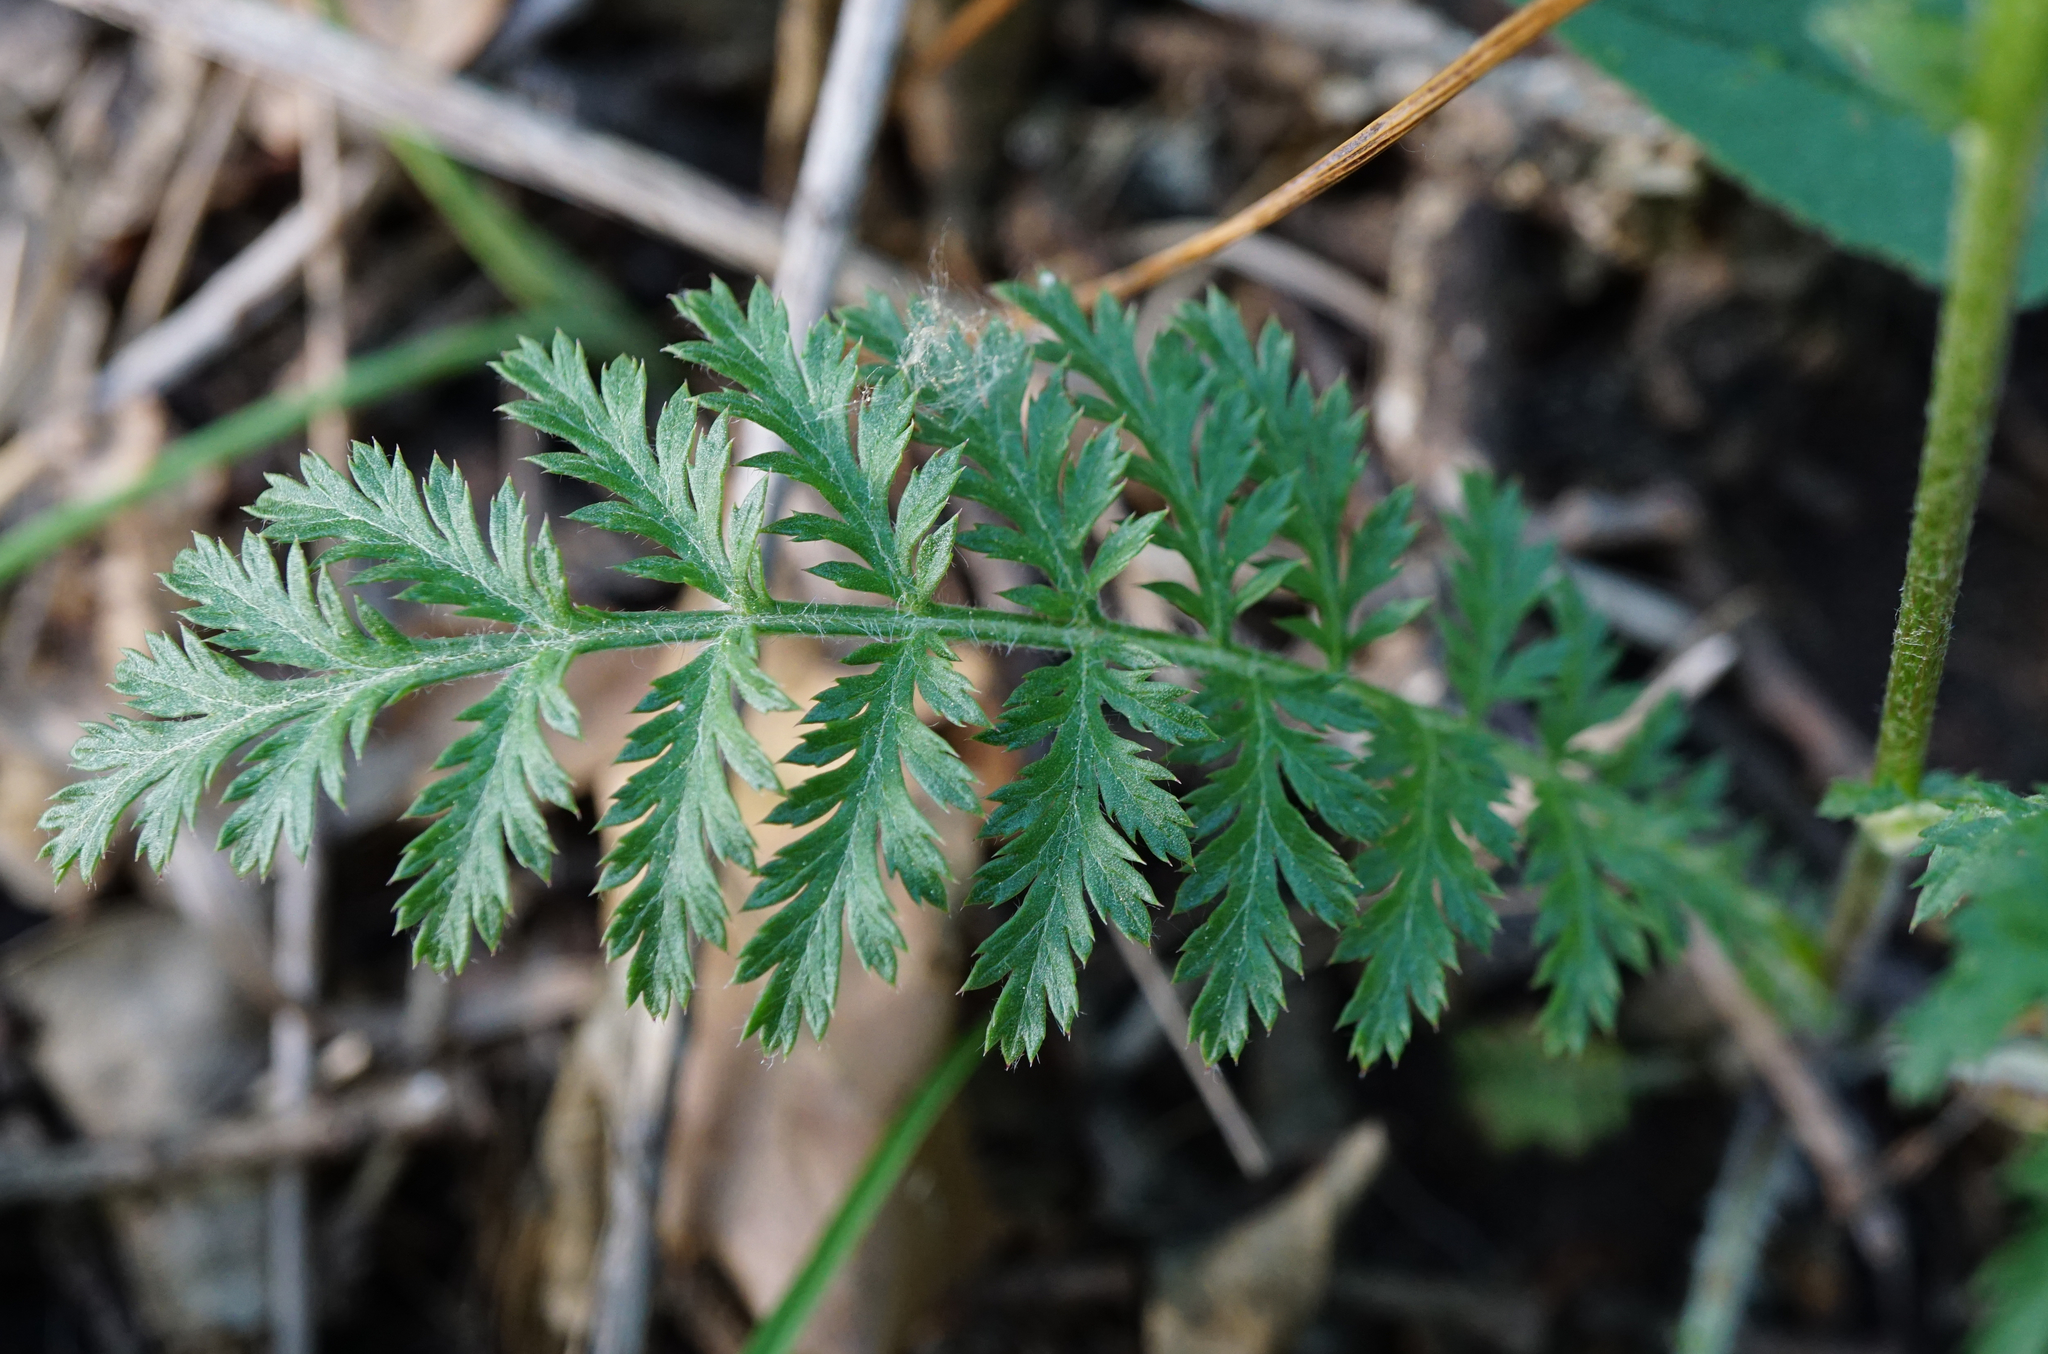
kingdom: Plantae
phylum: Tracheophyta
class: Magnoliopsida
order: Asterales
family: Asteraceae
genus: Tanacetum
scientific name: Tanacetum corymbosum
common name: Scentless feverfew
